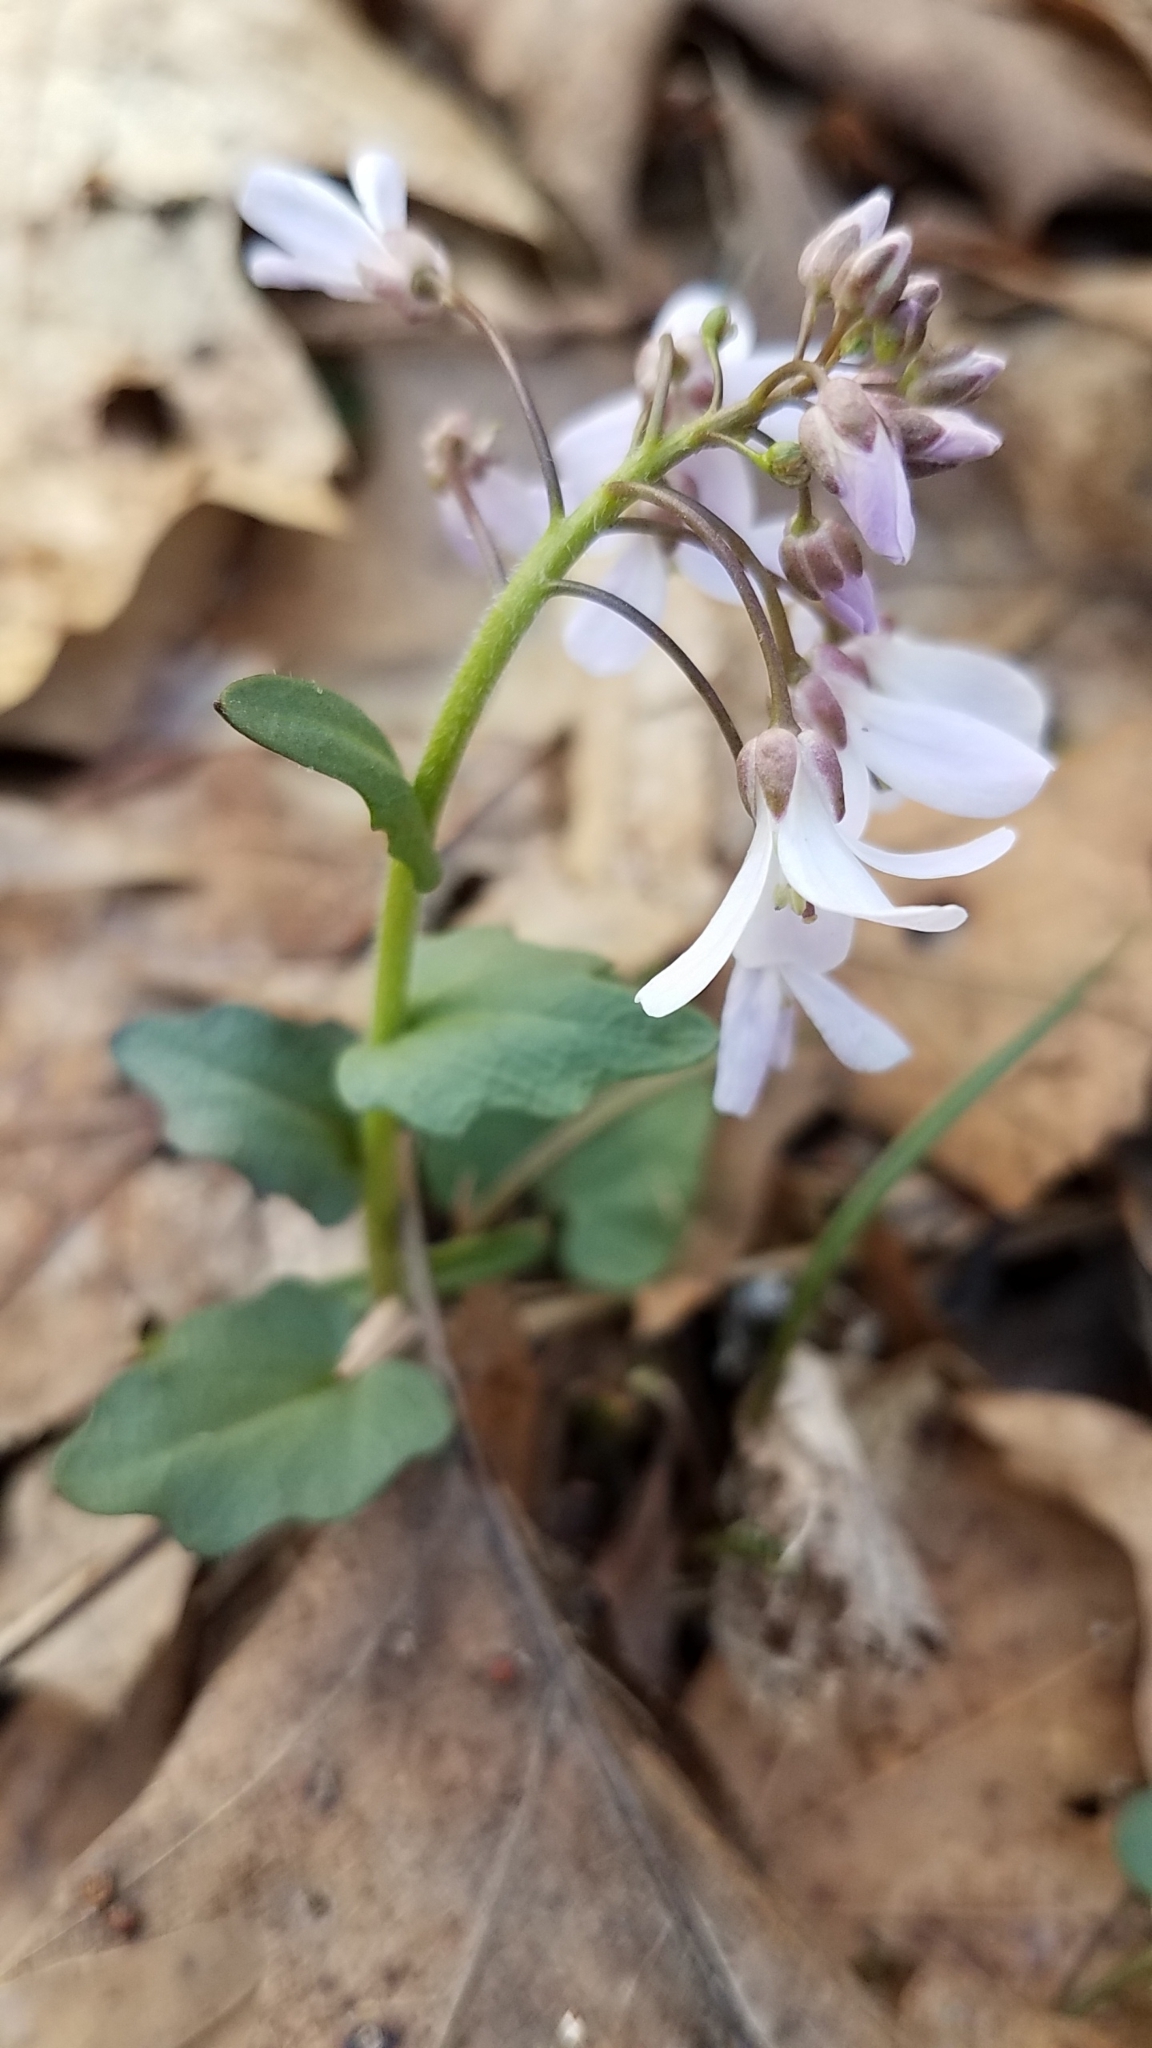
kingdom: Plantae
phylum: Tracheophyta
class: Magnoliopsida
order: Brassicales
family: Brassicaceae
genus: Cardamine
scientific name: Cardamine douglassii
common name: Purple cress
